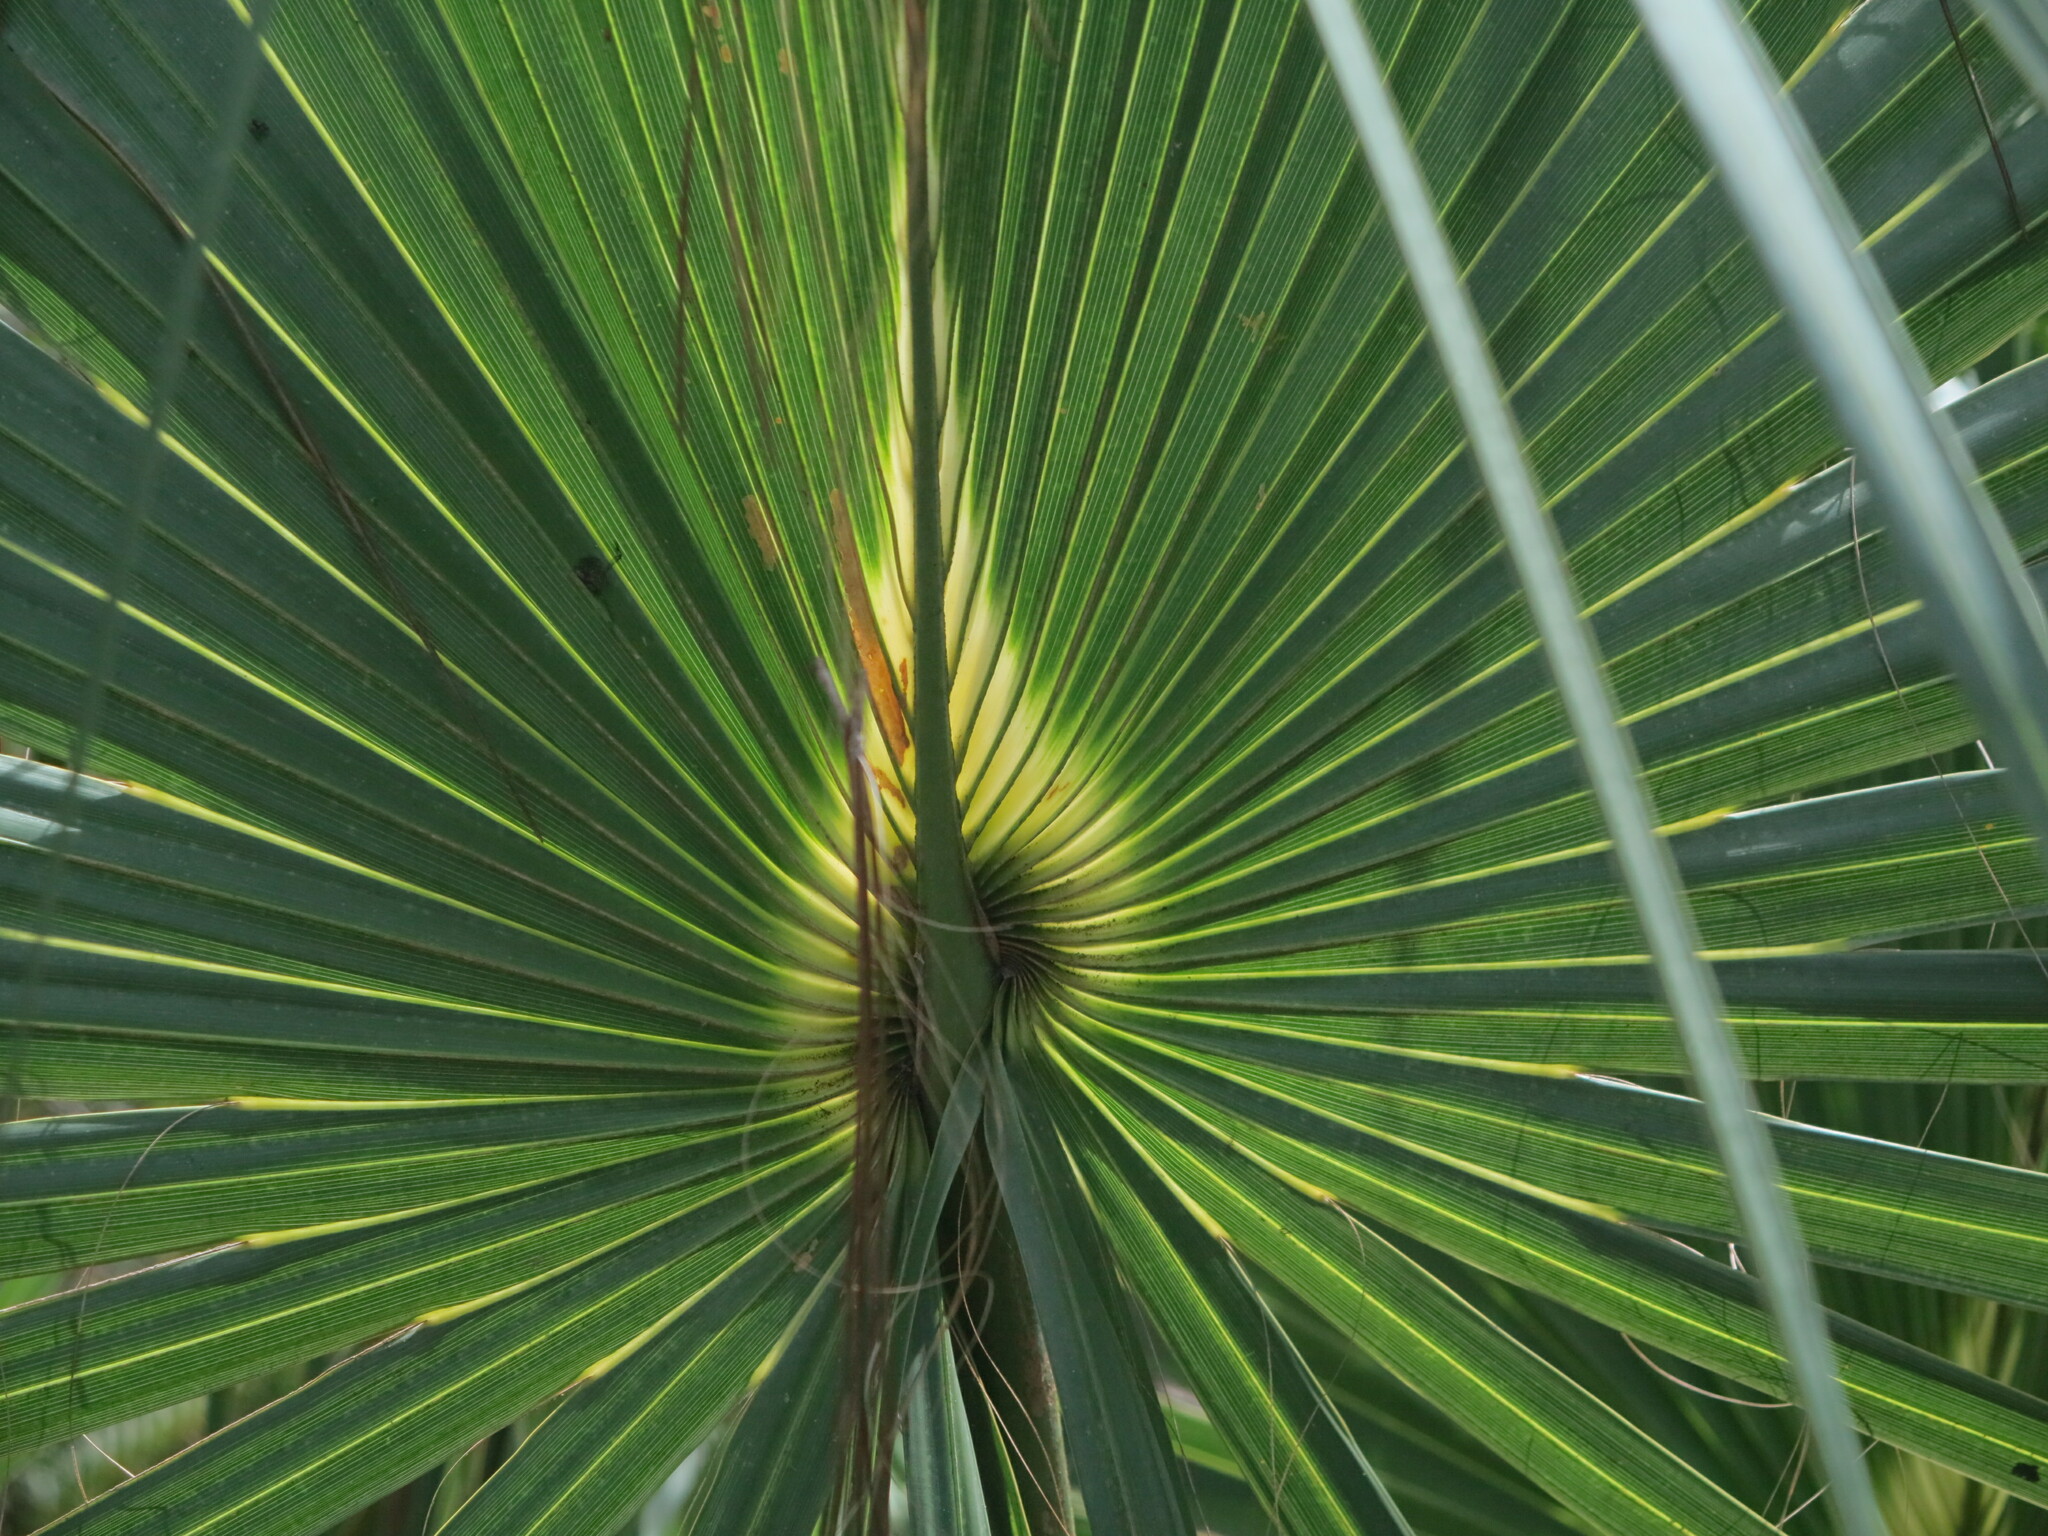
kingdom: Plantae
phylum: Tracheophyta
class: Liliopsida
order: Arecales
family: Arecaceae
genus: Sabal
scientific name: Sabal palmetto
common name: Blue palmetto
